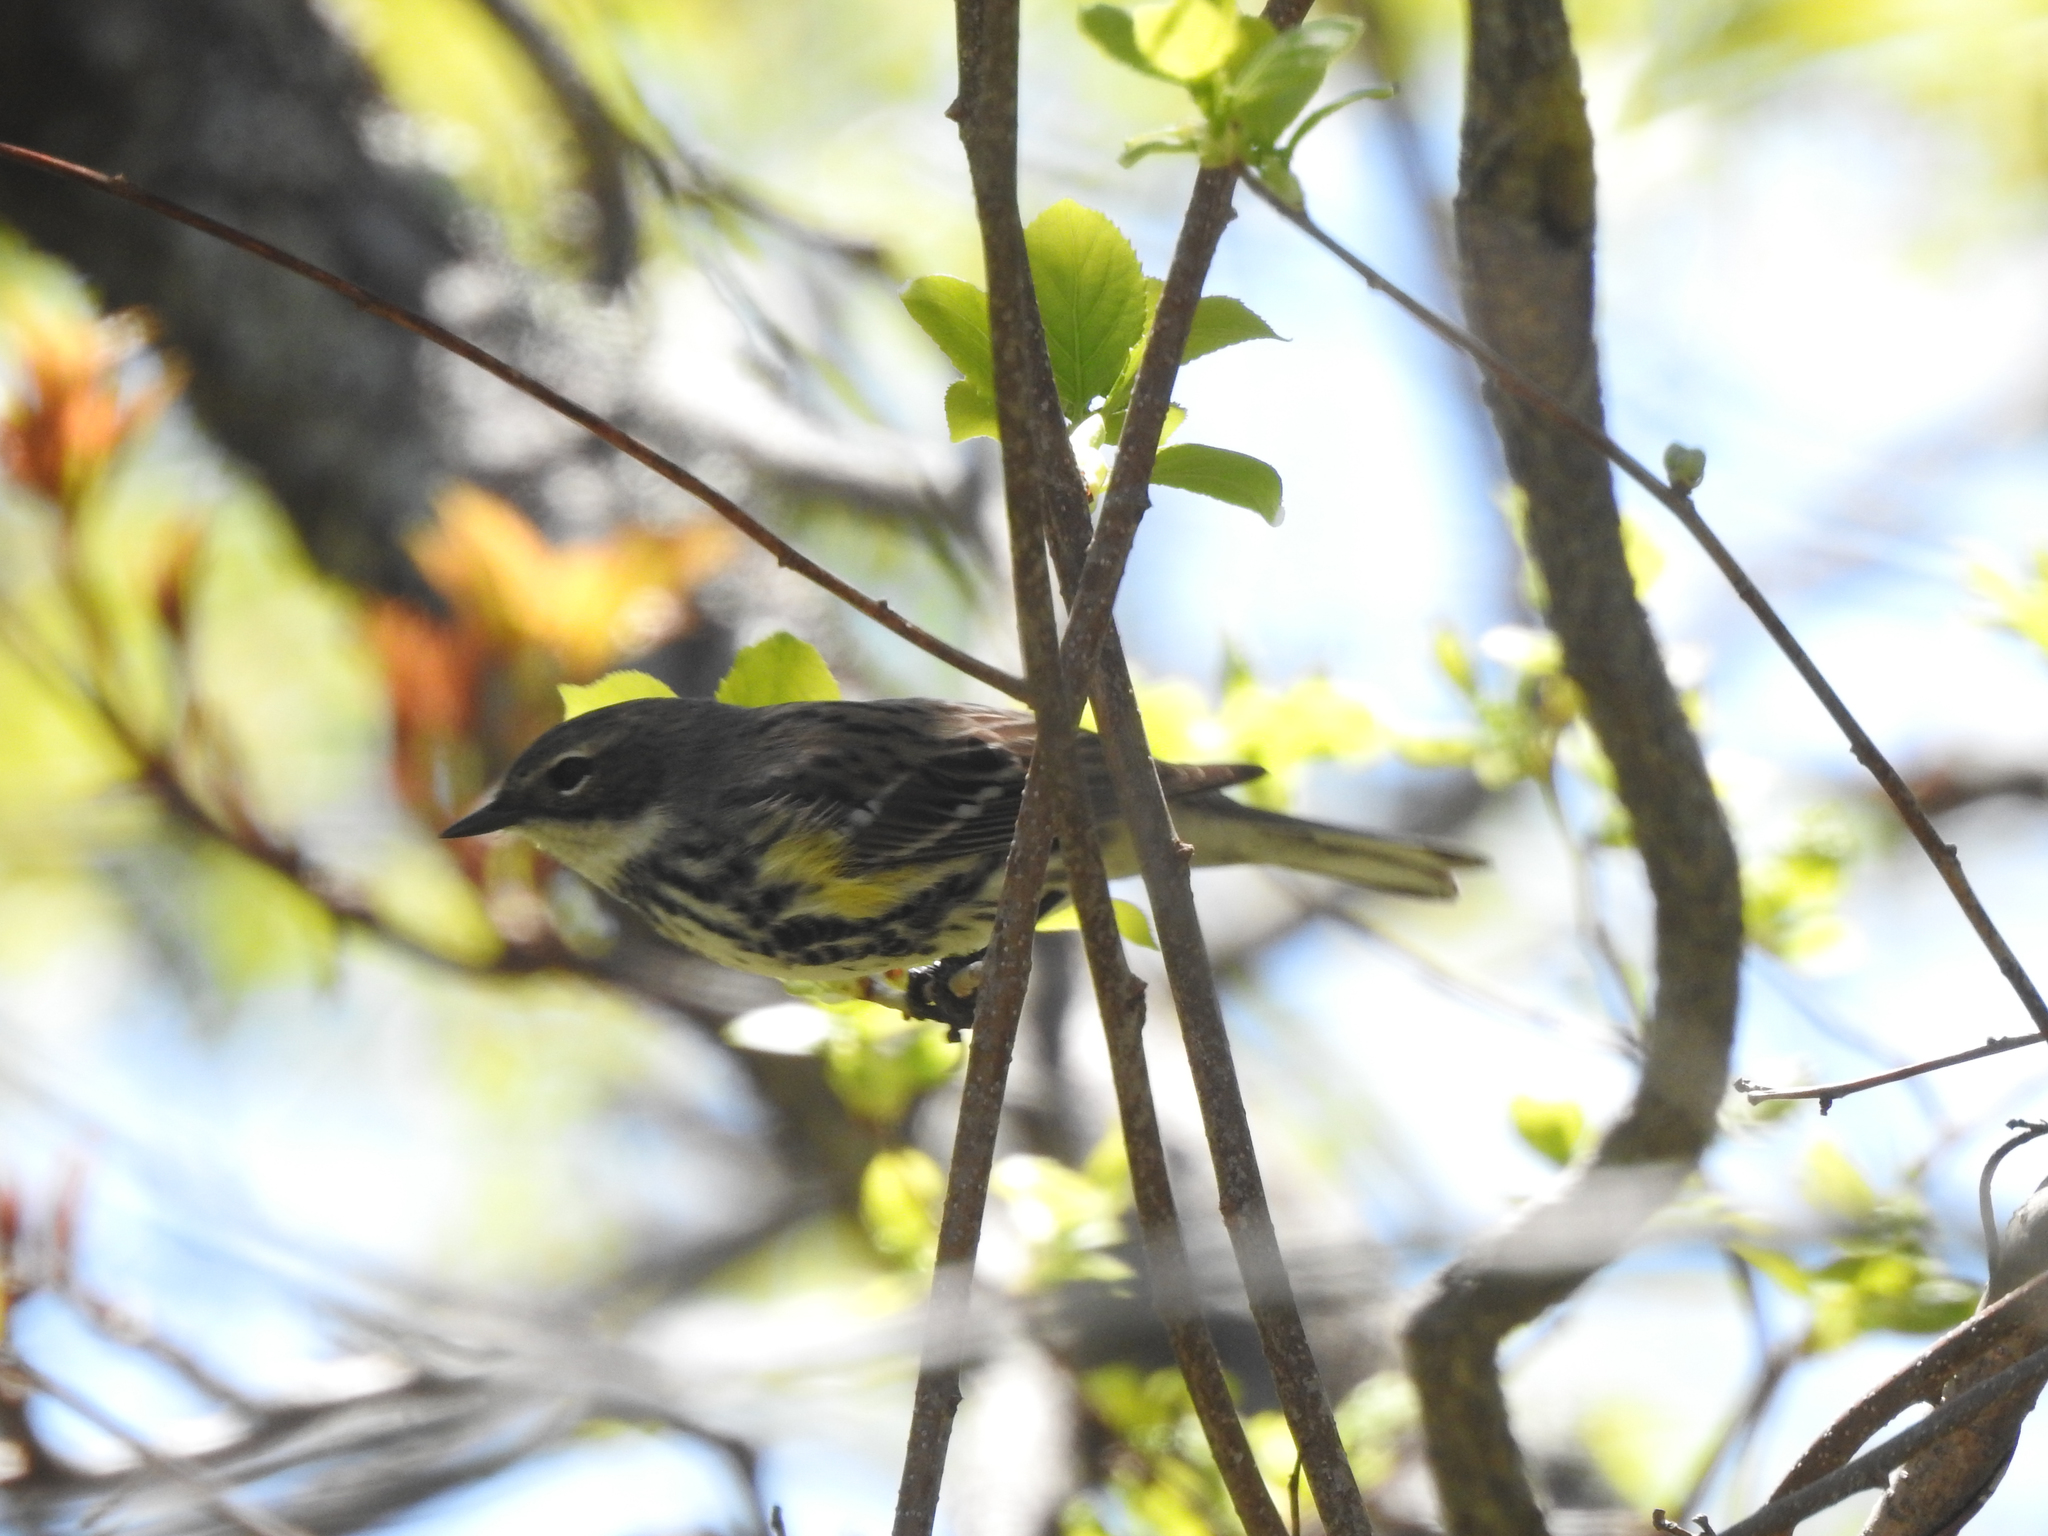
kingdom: Animalia
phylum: Chordata
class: Aves
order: Passeriformes
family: Parulidae
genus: Setophaga
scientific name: Setophaga coronata
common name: Myrtle warbler
